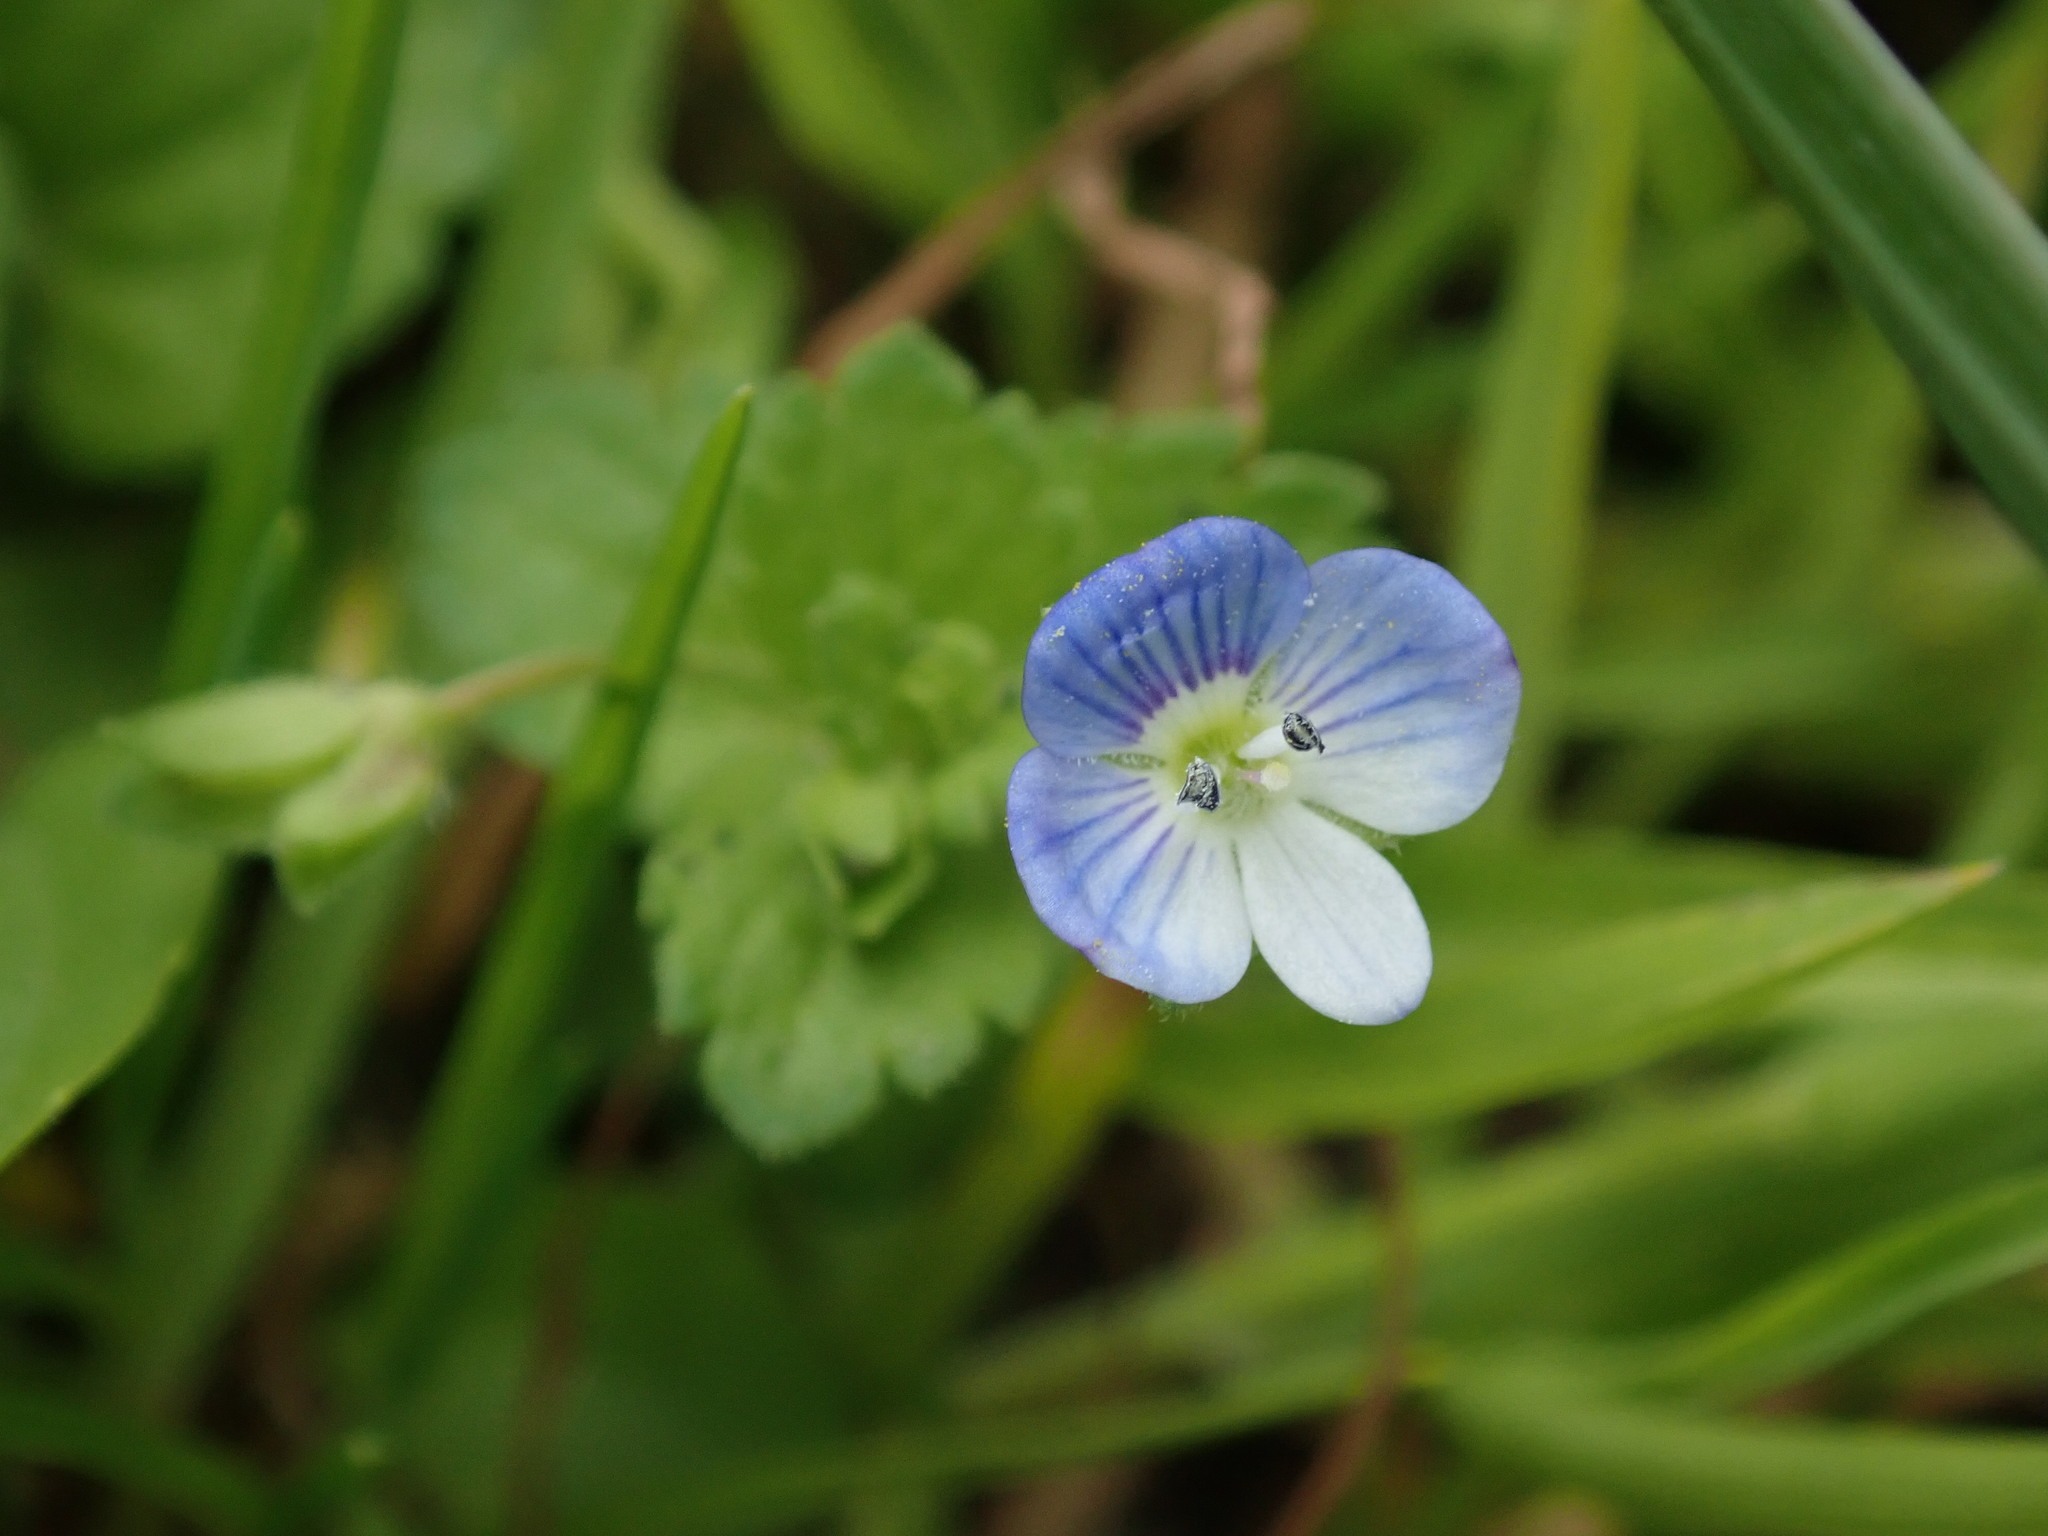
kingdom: Plantae
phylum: Tracheophyta
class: Magnoliopsida
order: Lamiales
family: Plantaginaceae
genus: Veronica
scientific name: Veronica persica
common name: Common field-speedwell
